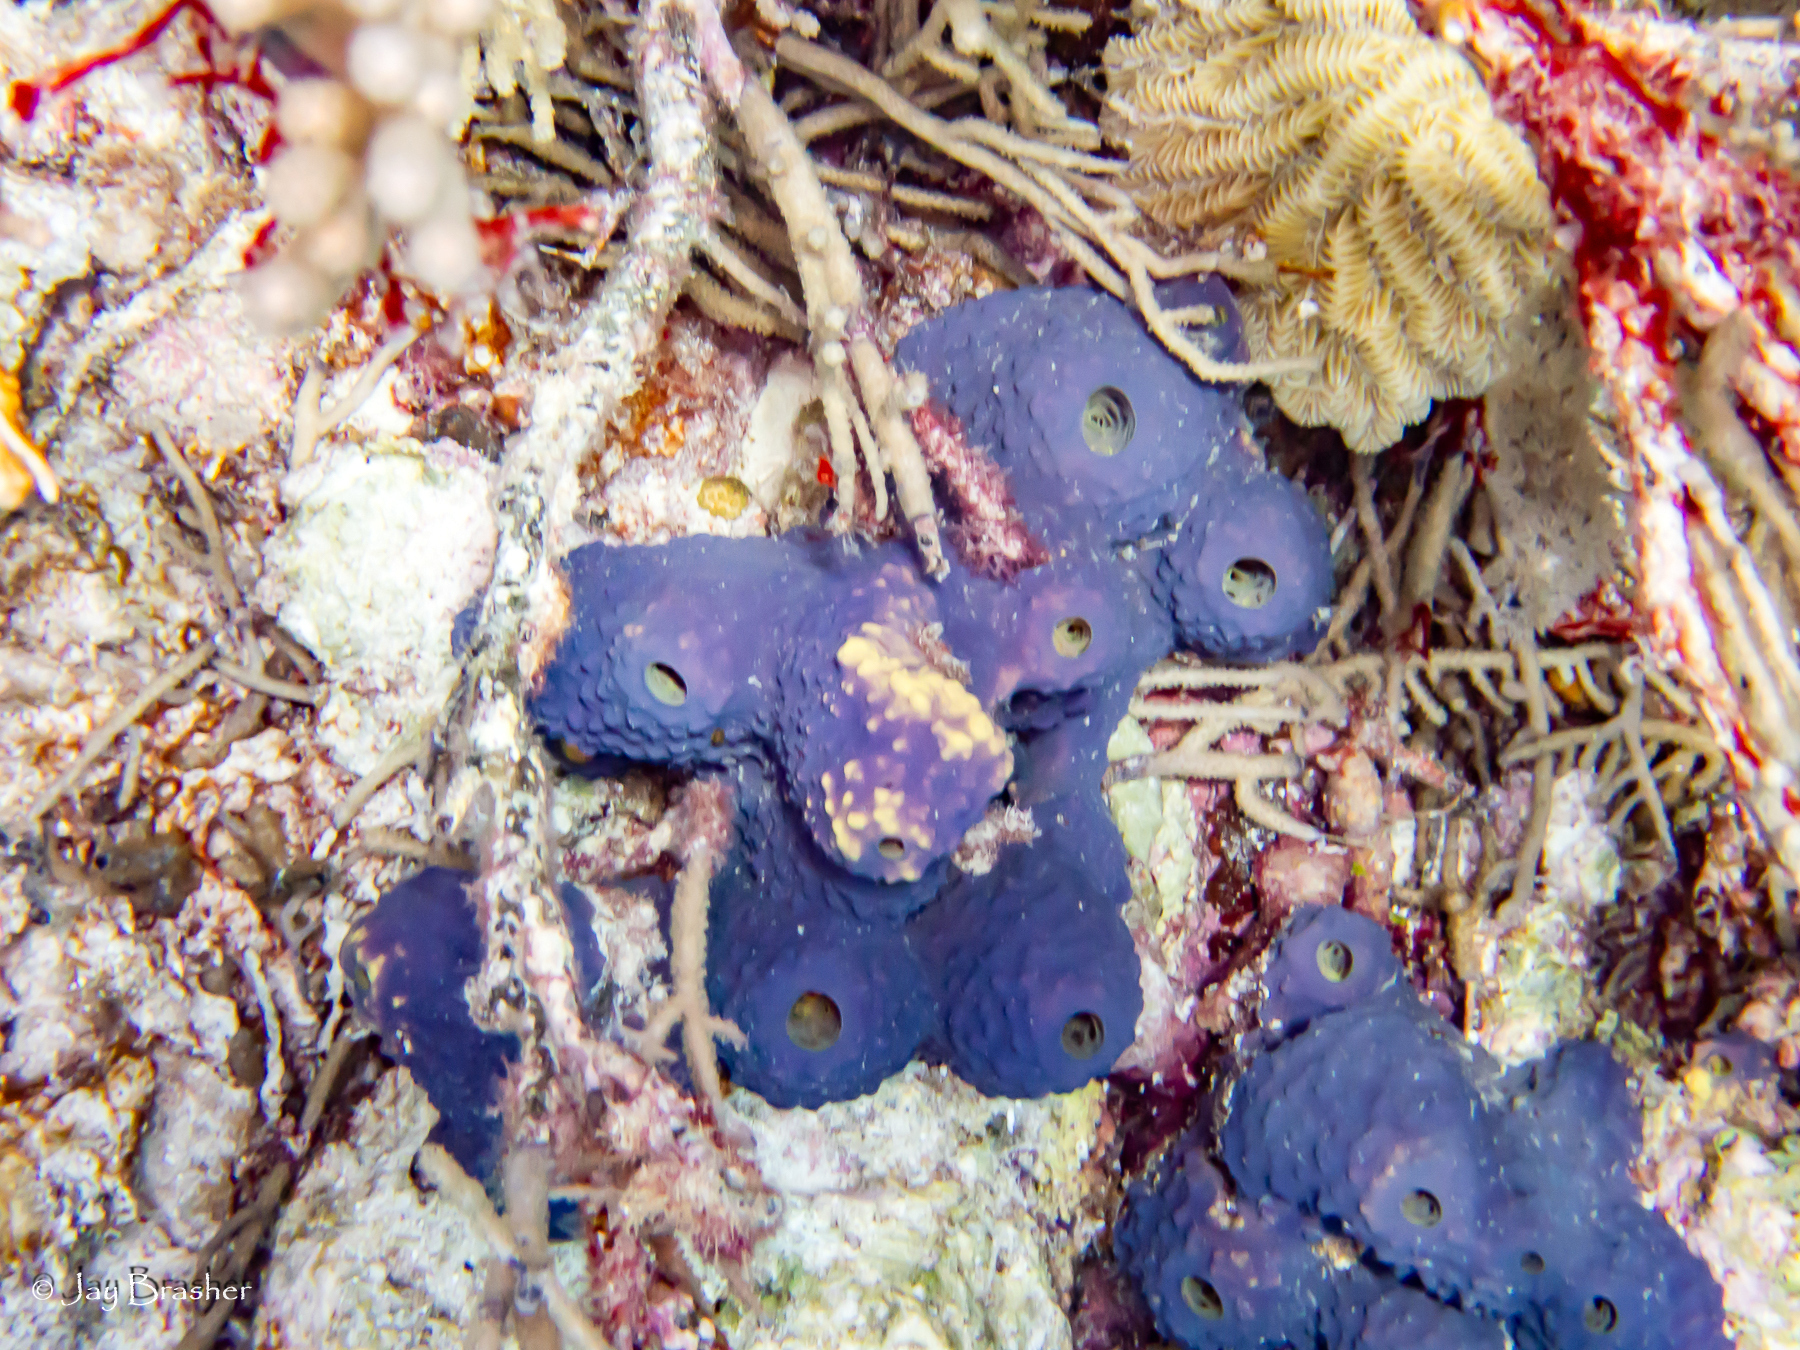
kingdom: Animalia
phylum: Porifera
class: Demospongiae
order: Verongiida
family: Aplysinidae
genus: Aiolochroia
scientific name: Aiolochroia crassa
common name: Branching tube sponge
